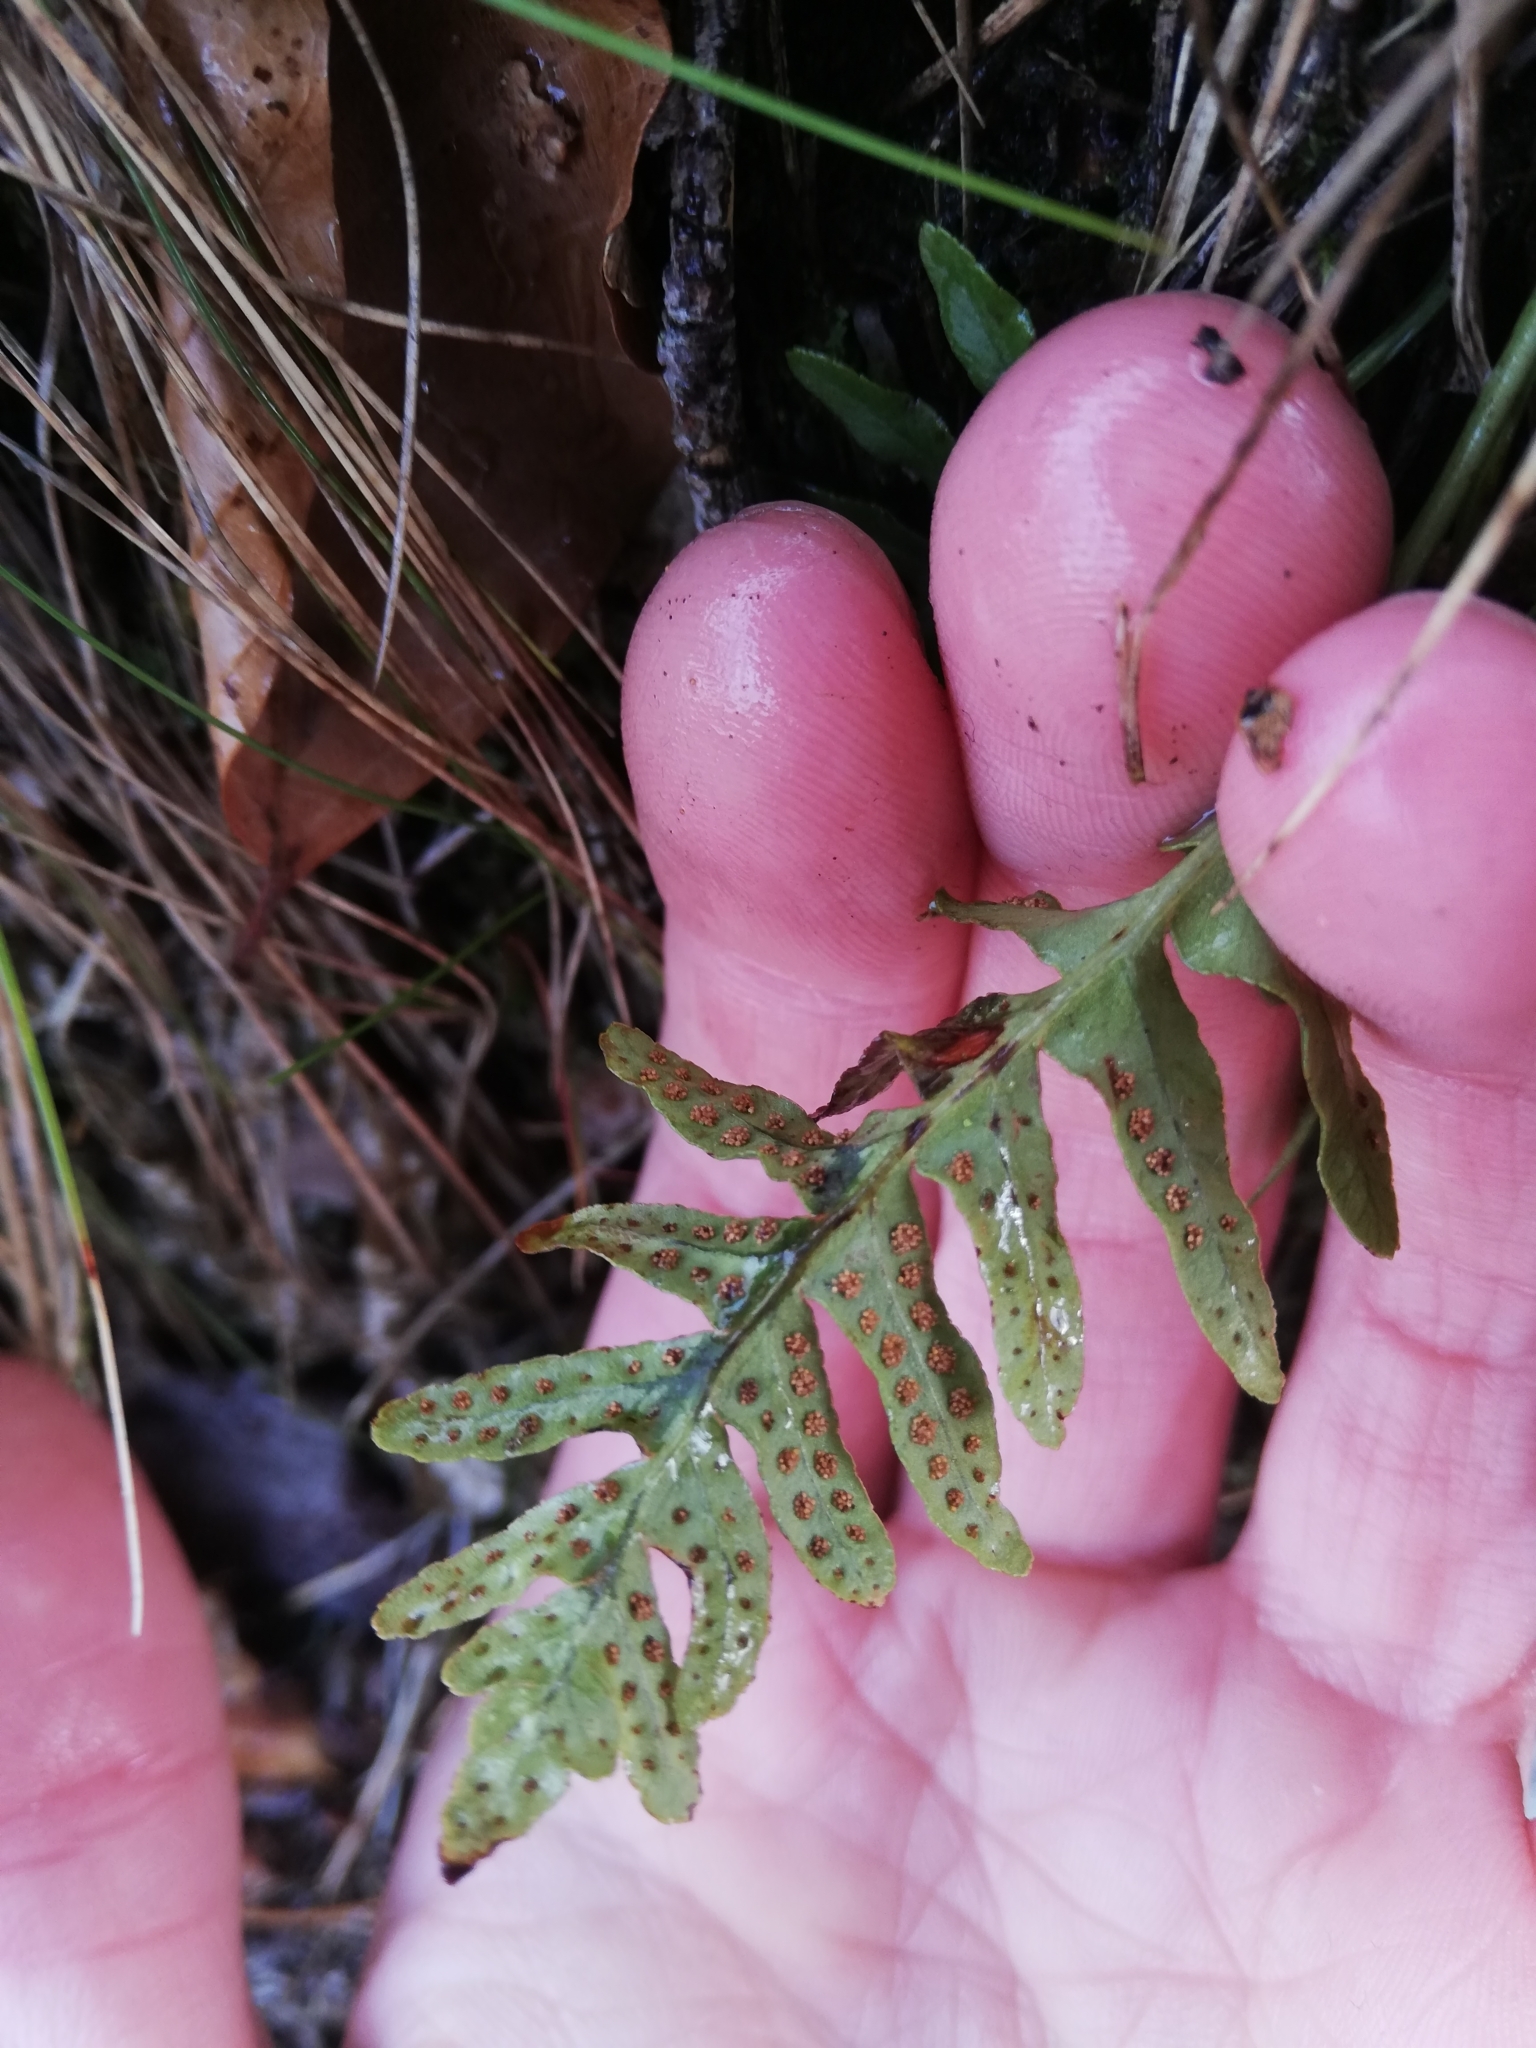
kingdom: Plantae
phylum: Tracheophyta
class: Polypodiopsida
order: Polypodiales
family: Polypodiaceae
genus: Polypodium
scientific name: Polypodium vulgare
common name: Common polypody
